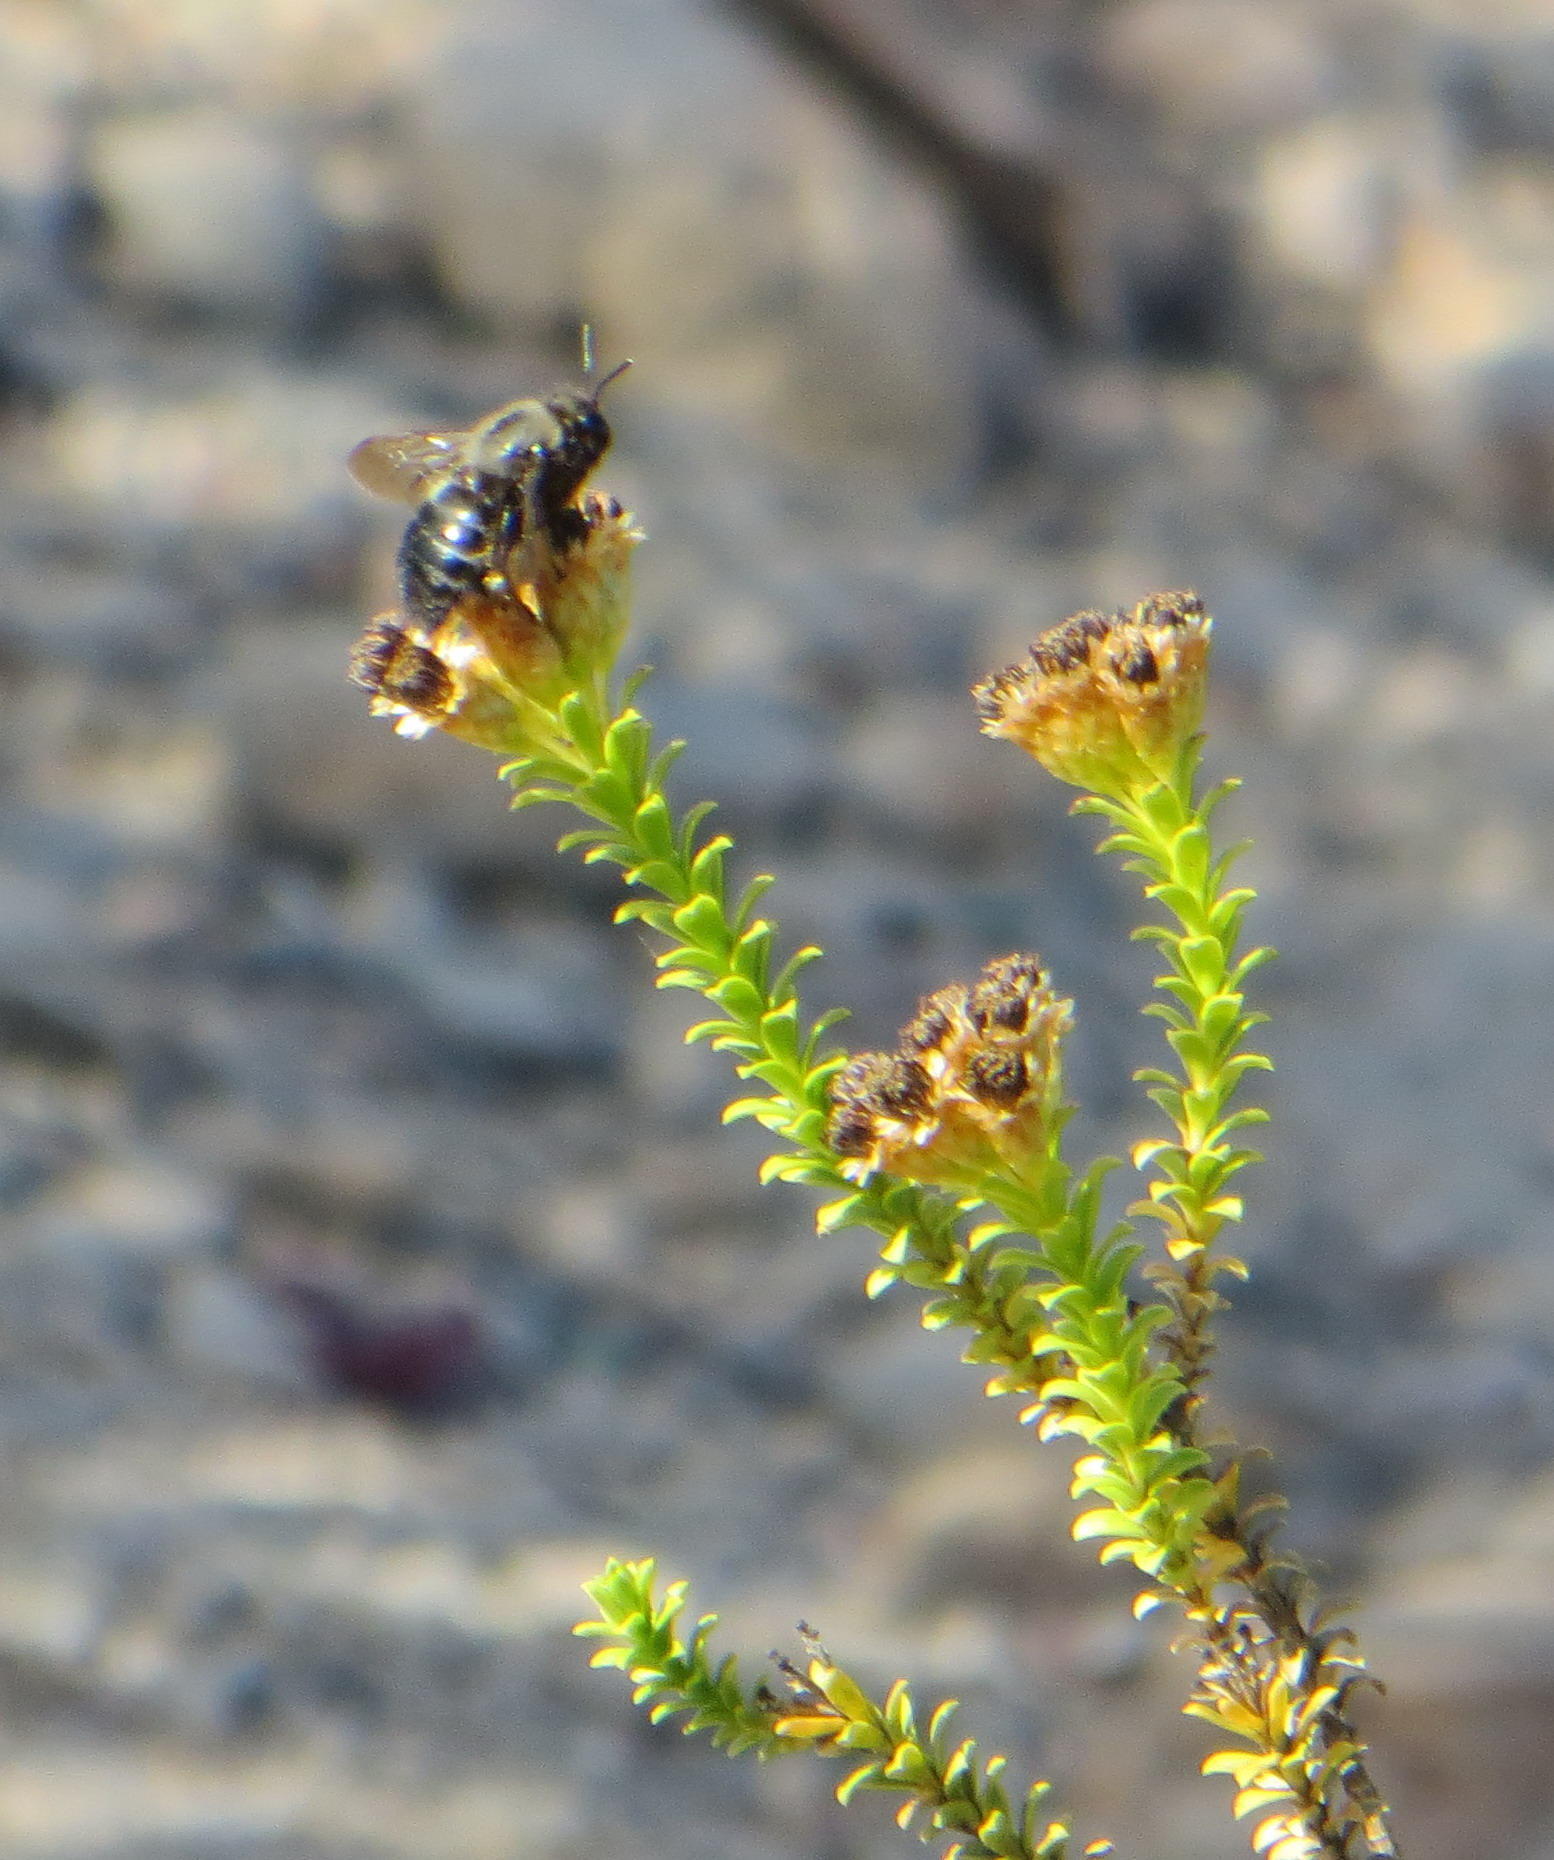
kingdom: Plantae
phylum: Tracheophyta
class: Magnoliopsida
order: Asterales
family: Asteraceae
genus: Oedera
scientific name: Oedera squarrosa
